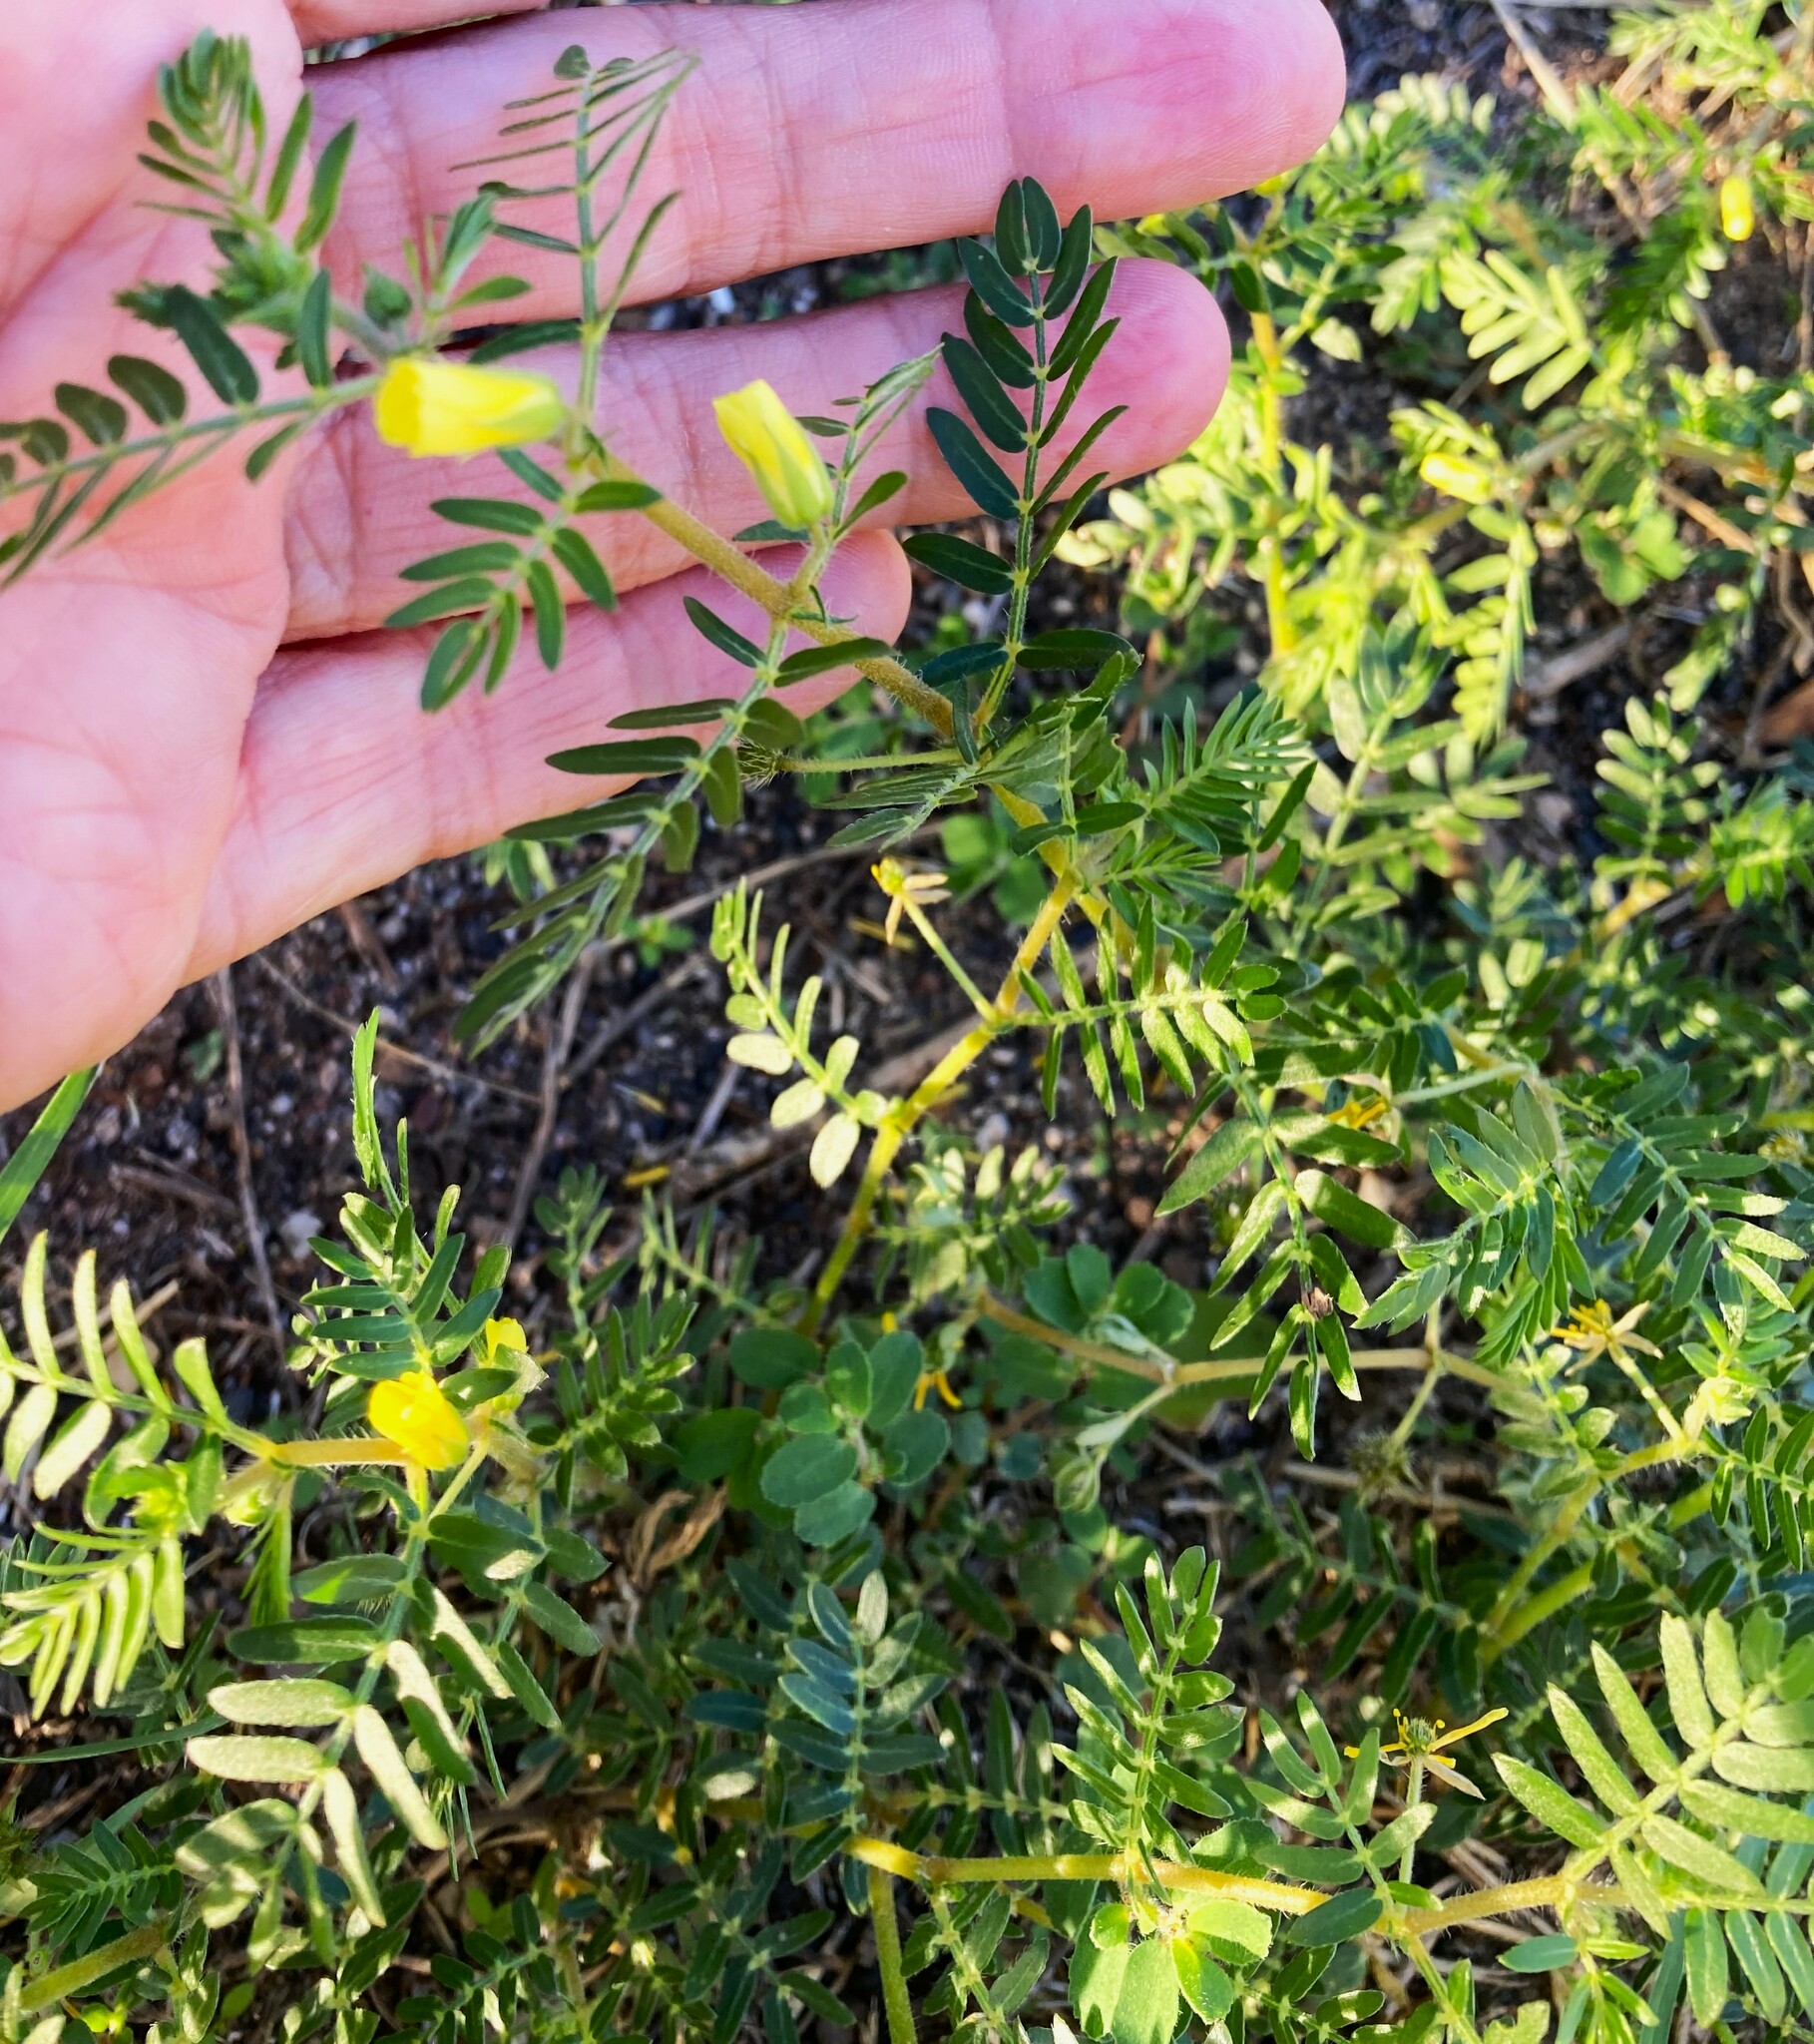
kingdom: Plantae
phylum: Tracheophyta
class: Magnoliopsida
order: Zygophyllales
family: Zygophyllaceae
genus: Tribulus
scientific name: Tribulus terrestris
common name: Puncturevine
